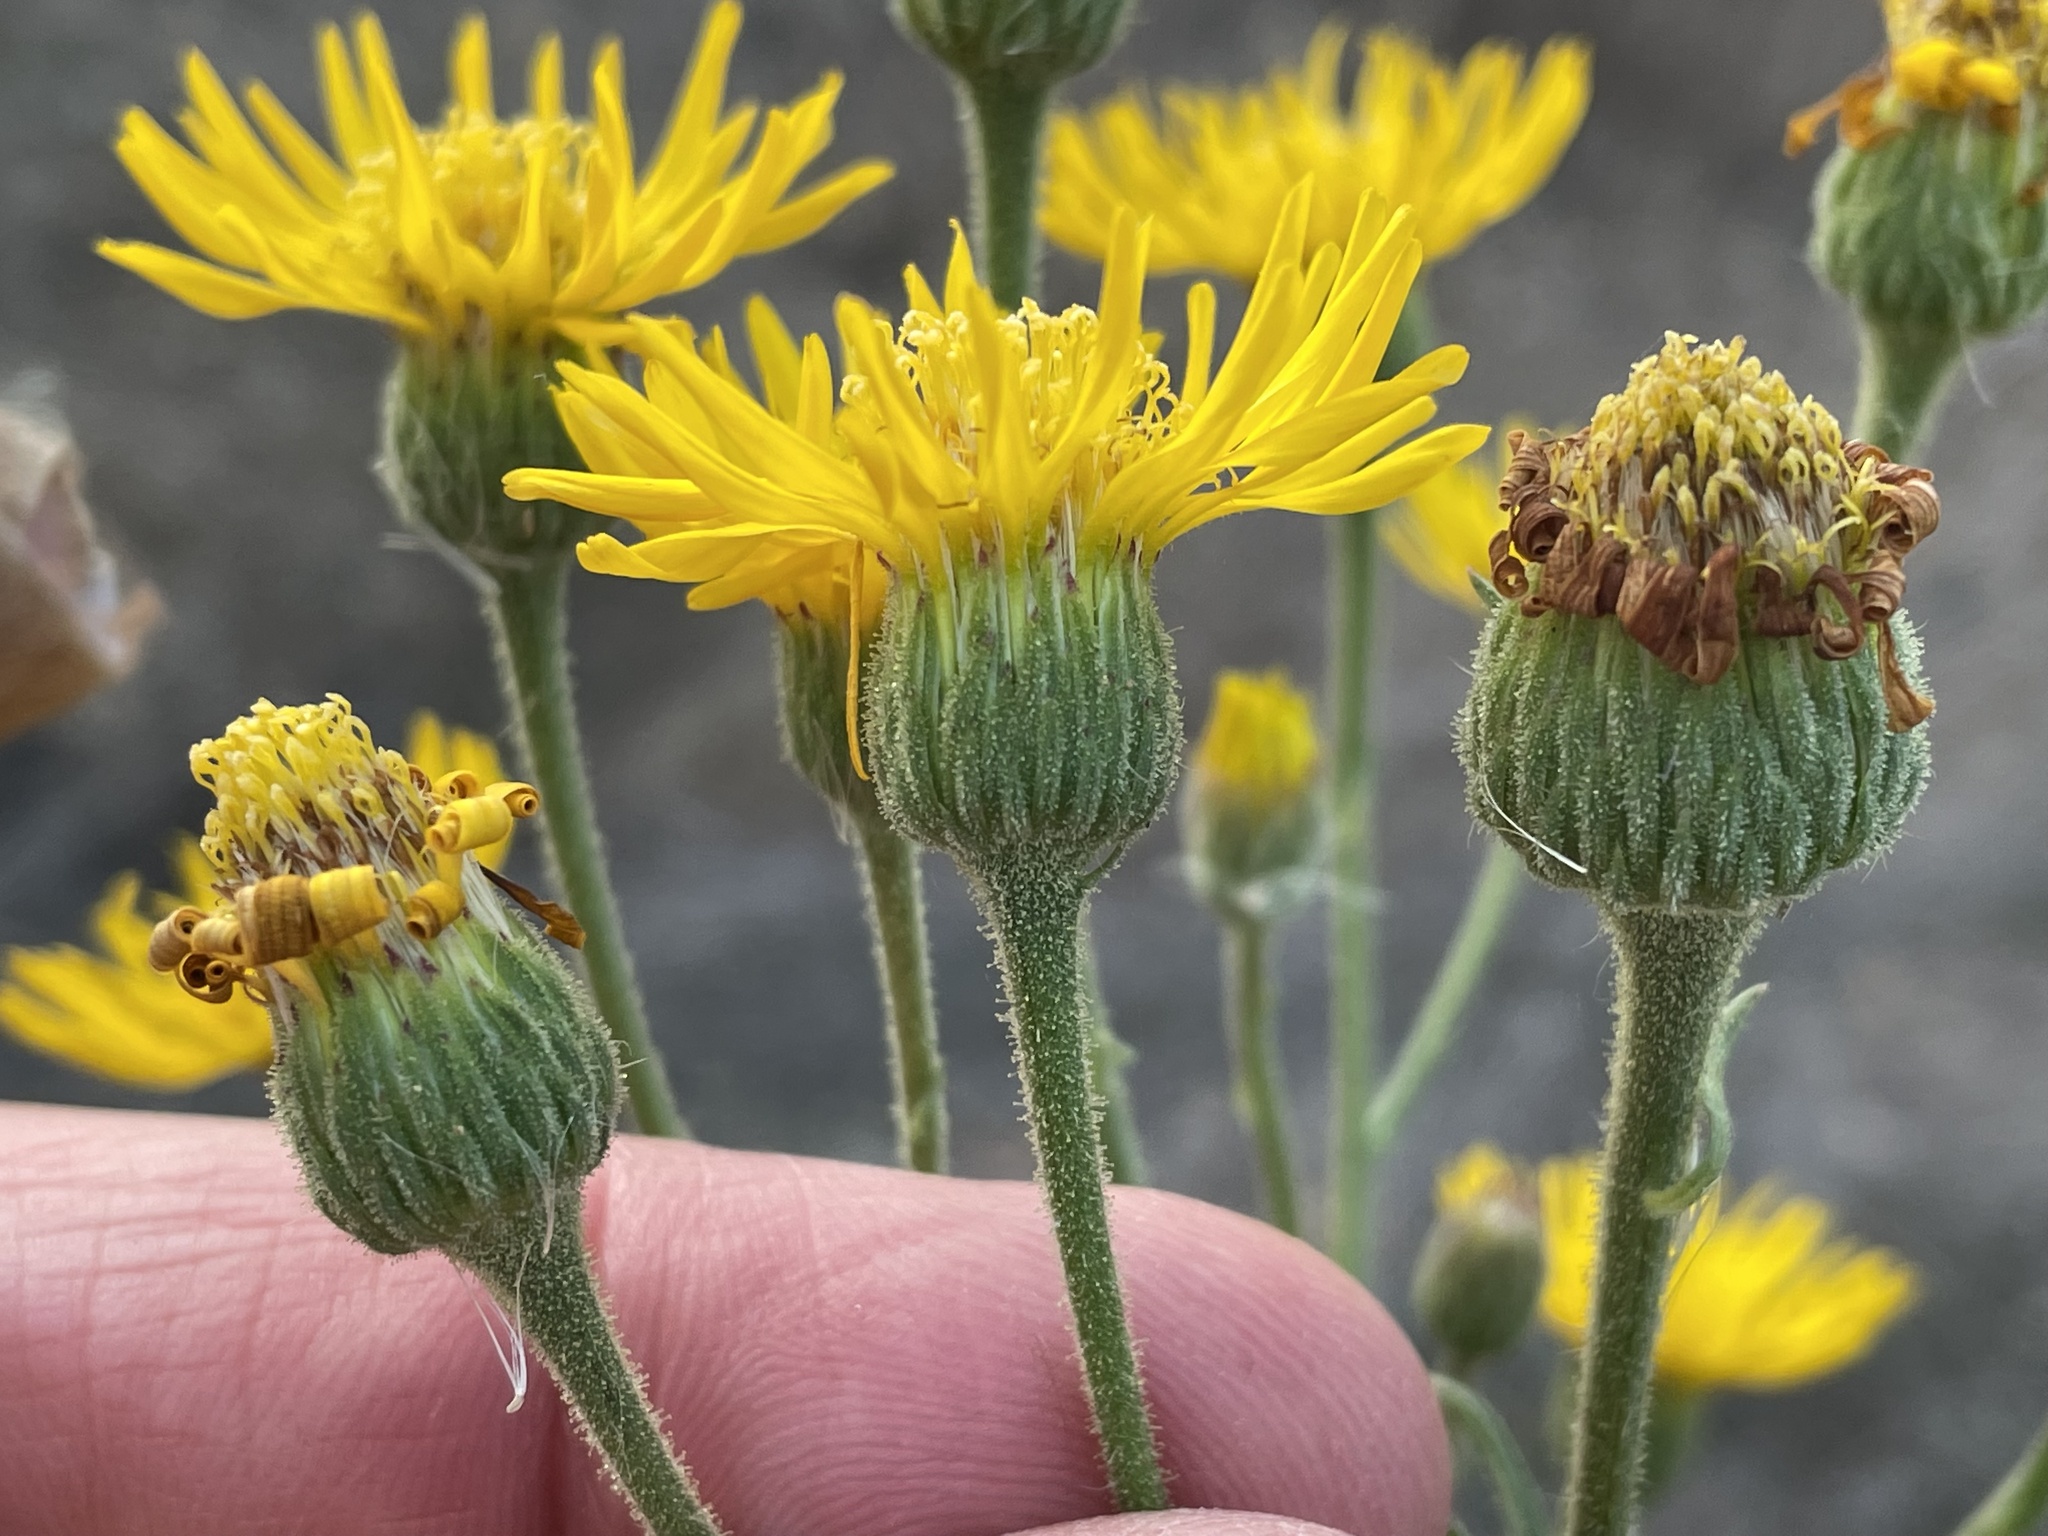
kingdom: Plantae
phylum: Tracheophyta
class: Magnoliopsida
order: Asterales
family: Asteraceae
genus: Heterotheca
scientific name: Heterotheca grandiflora
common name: Telegraphweed
